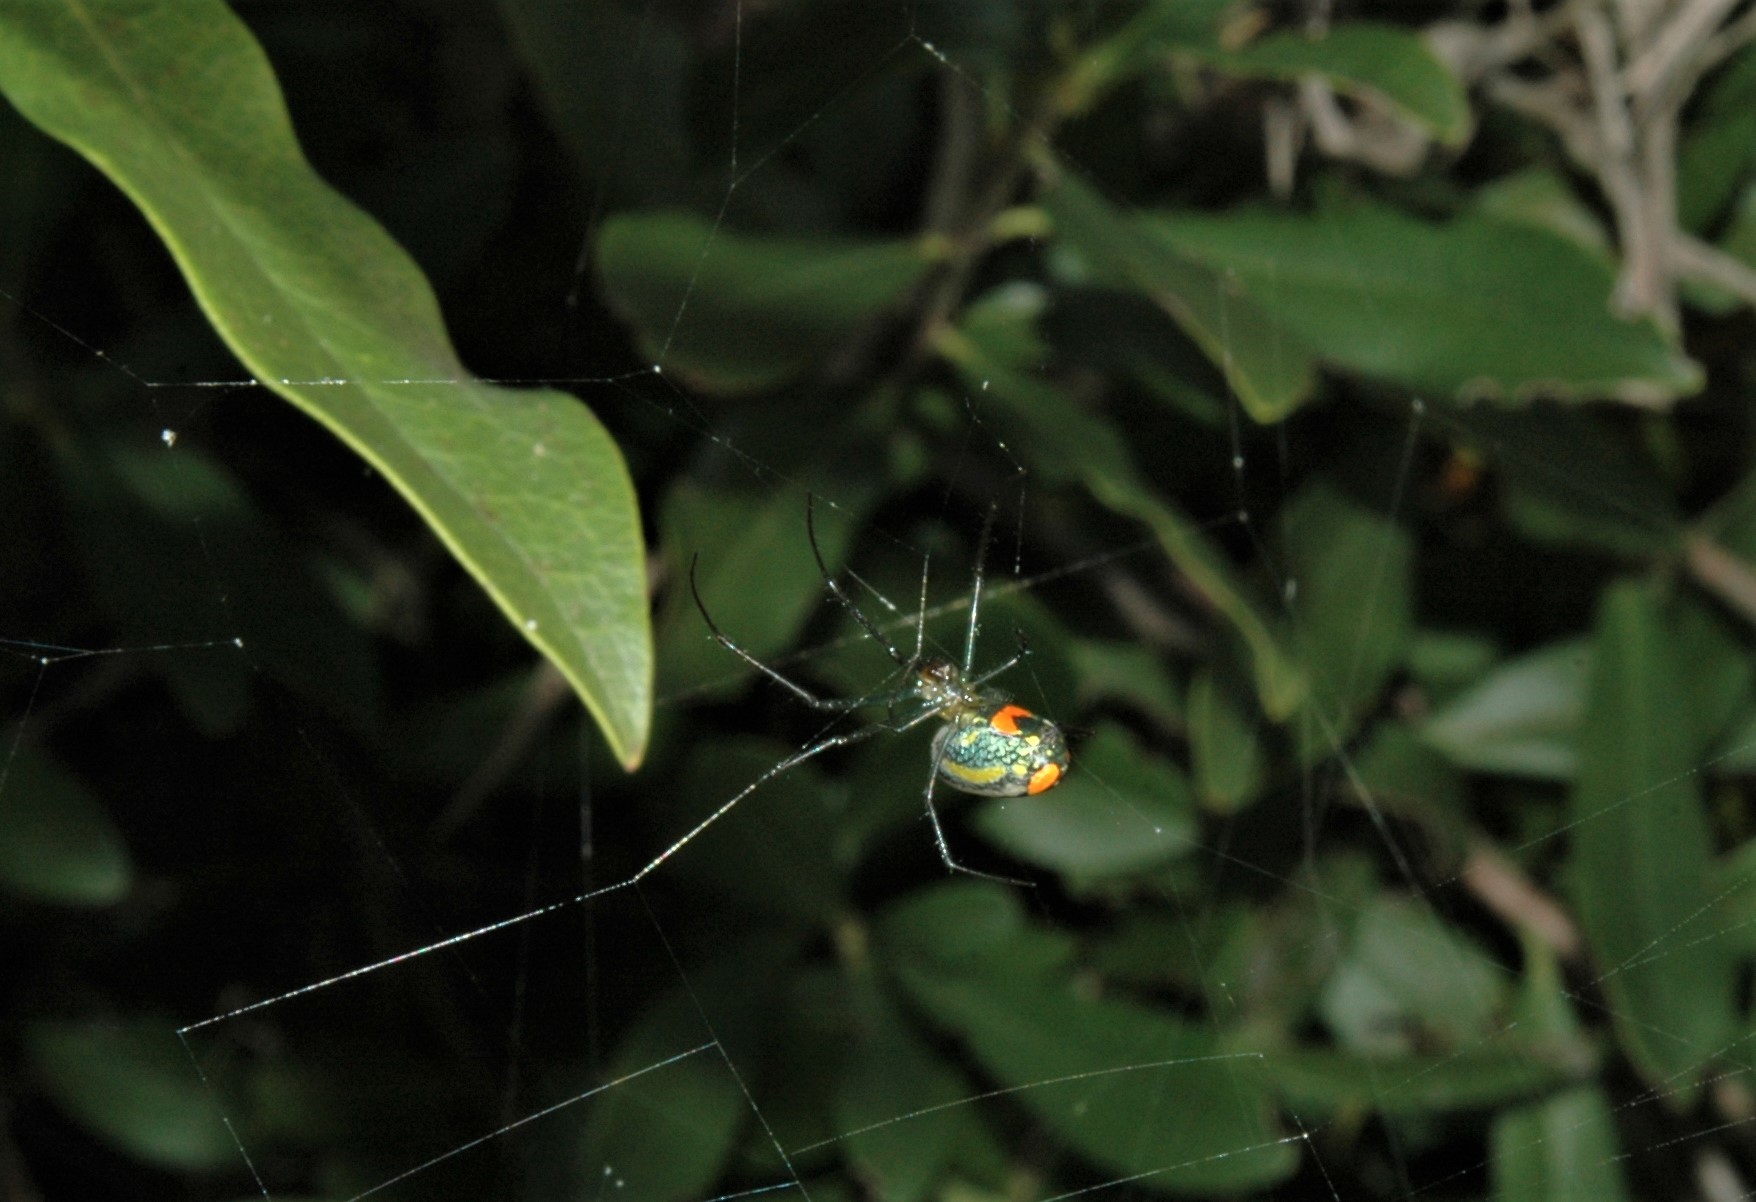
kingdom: Animalia
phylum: Arthropoda
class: Arachnida
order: Araneae
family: Tetragnathidae
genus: Leucauge
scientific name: Leucauge argyrobapta
